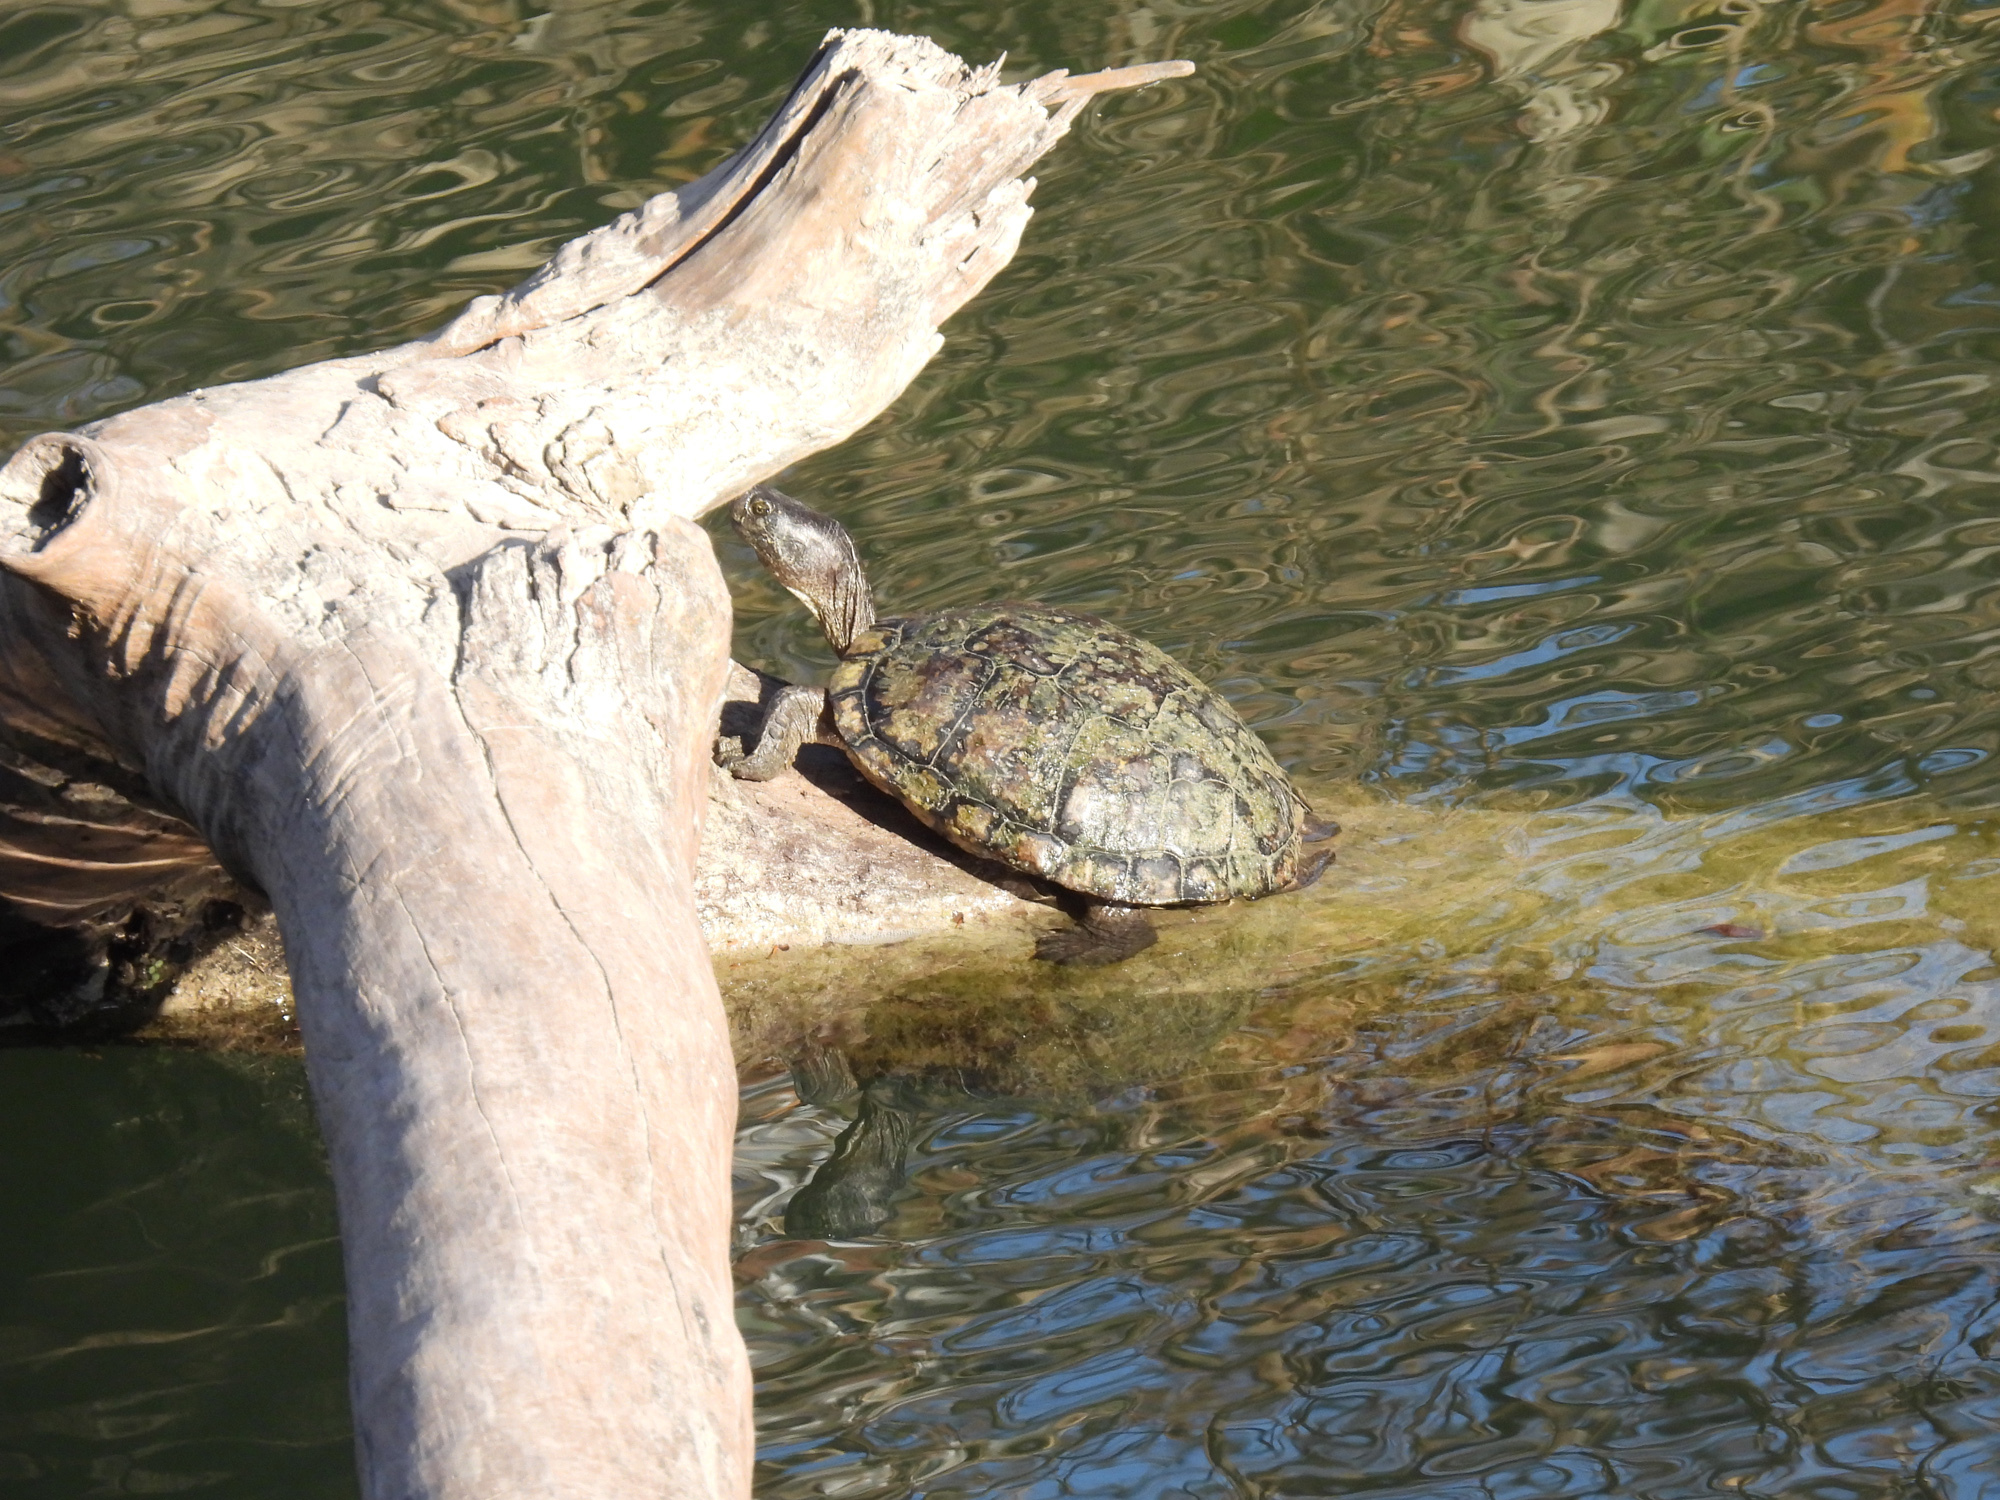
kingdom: Animalia
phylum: Chordata
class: Testudines
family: Emydidae
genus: Trachemys
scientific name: Trachemys scripta
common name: Slider
